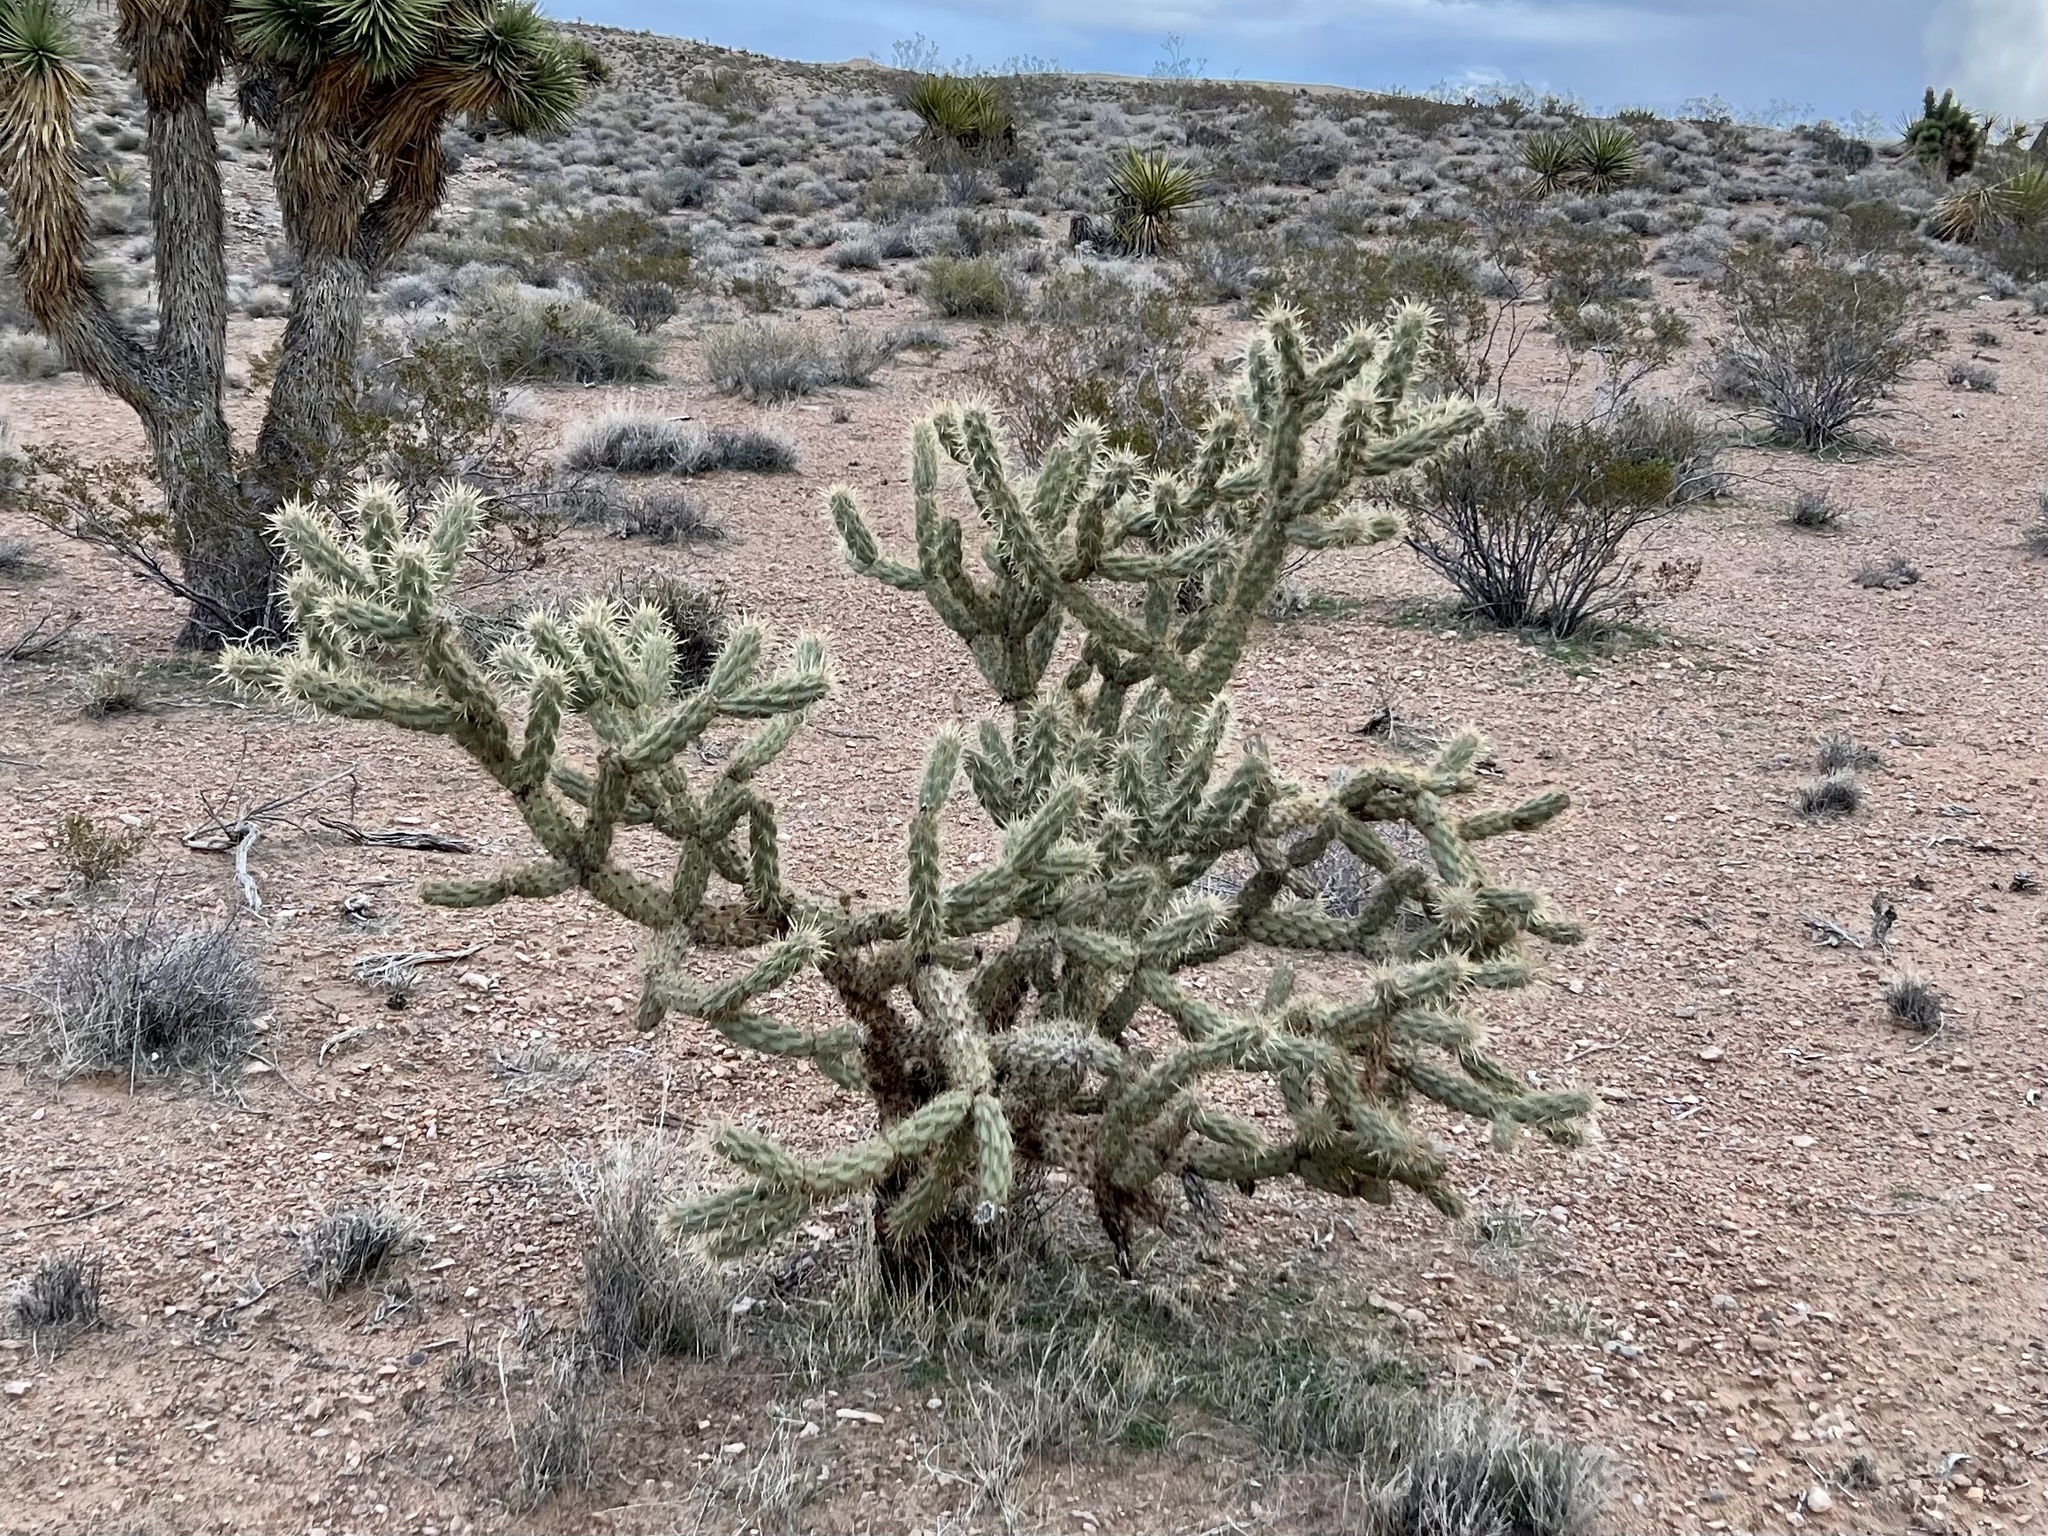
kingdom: Plantae
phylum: Tracheophyta
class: Magnoliopsida
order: Caryophyllales
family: Cactaceae
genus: Cylindropuntia
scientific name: Cylindropuntia acanthocarpa
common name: Buckhorn cholla
